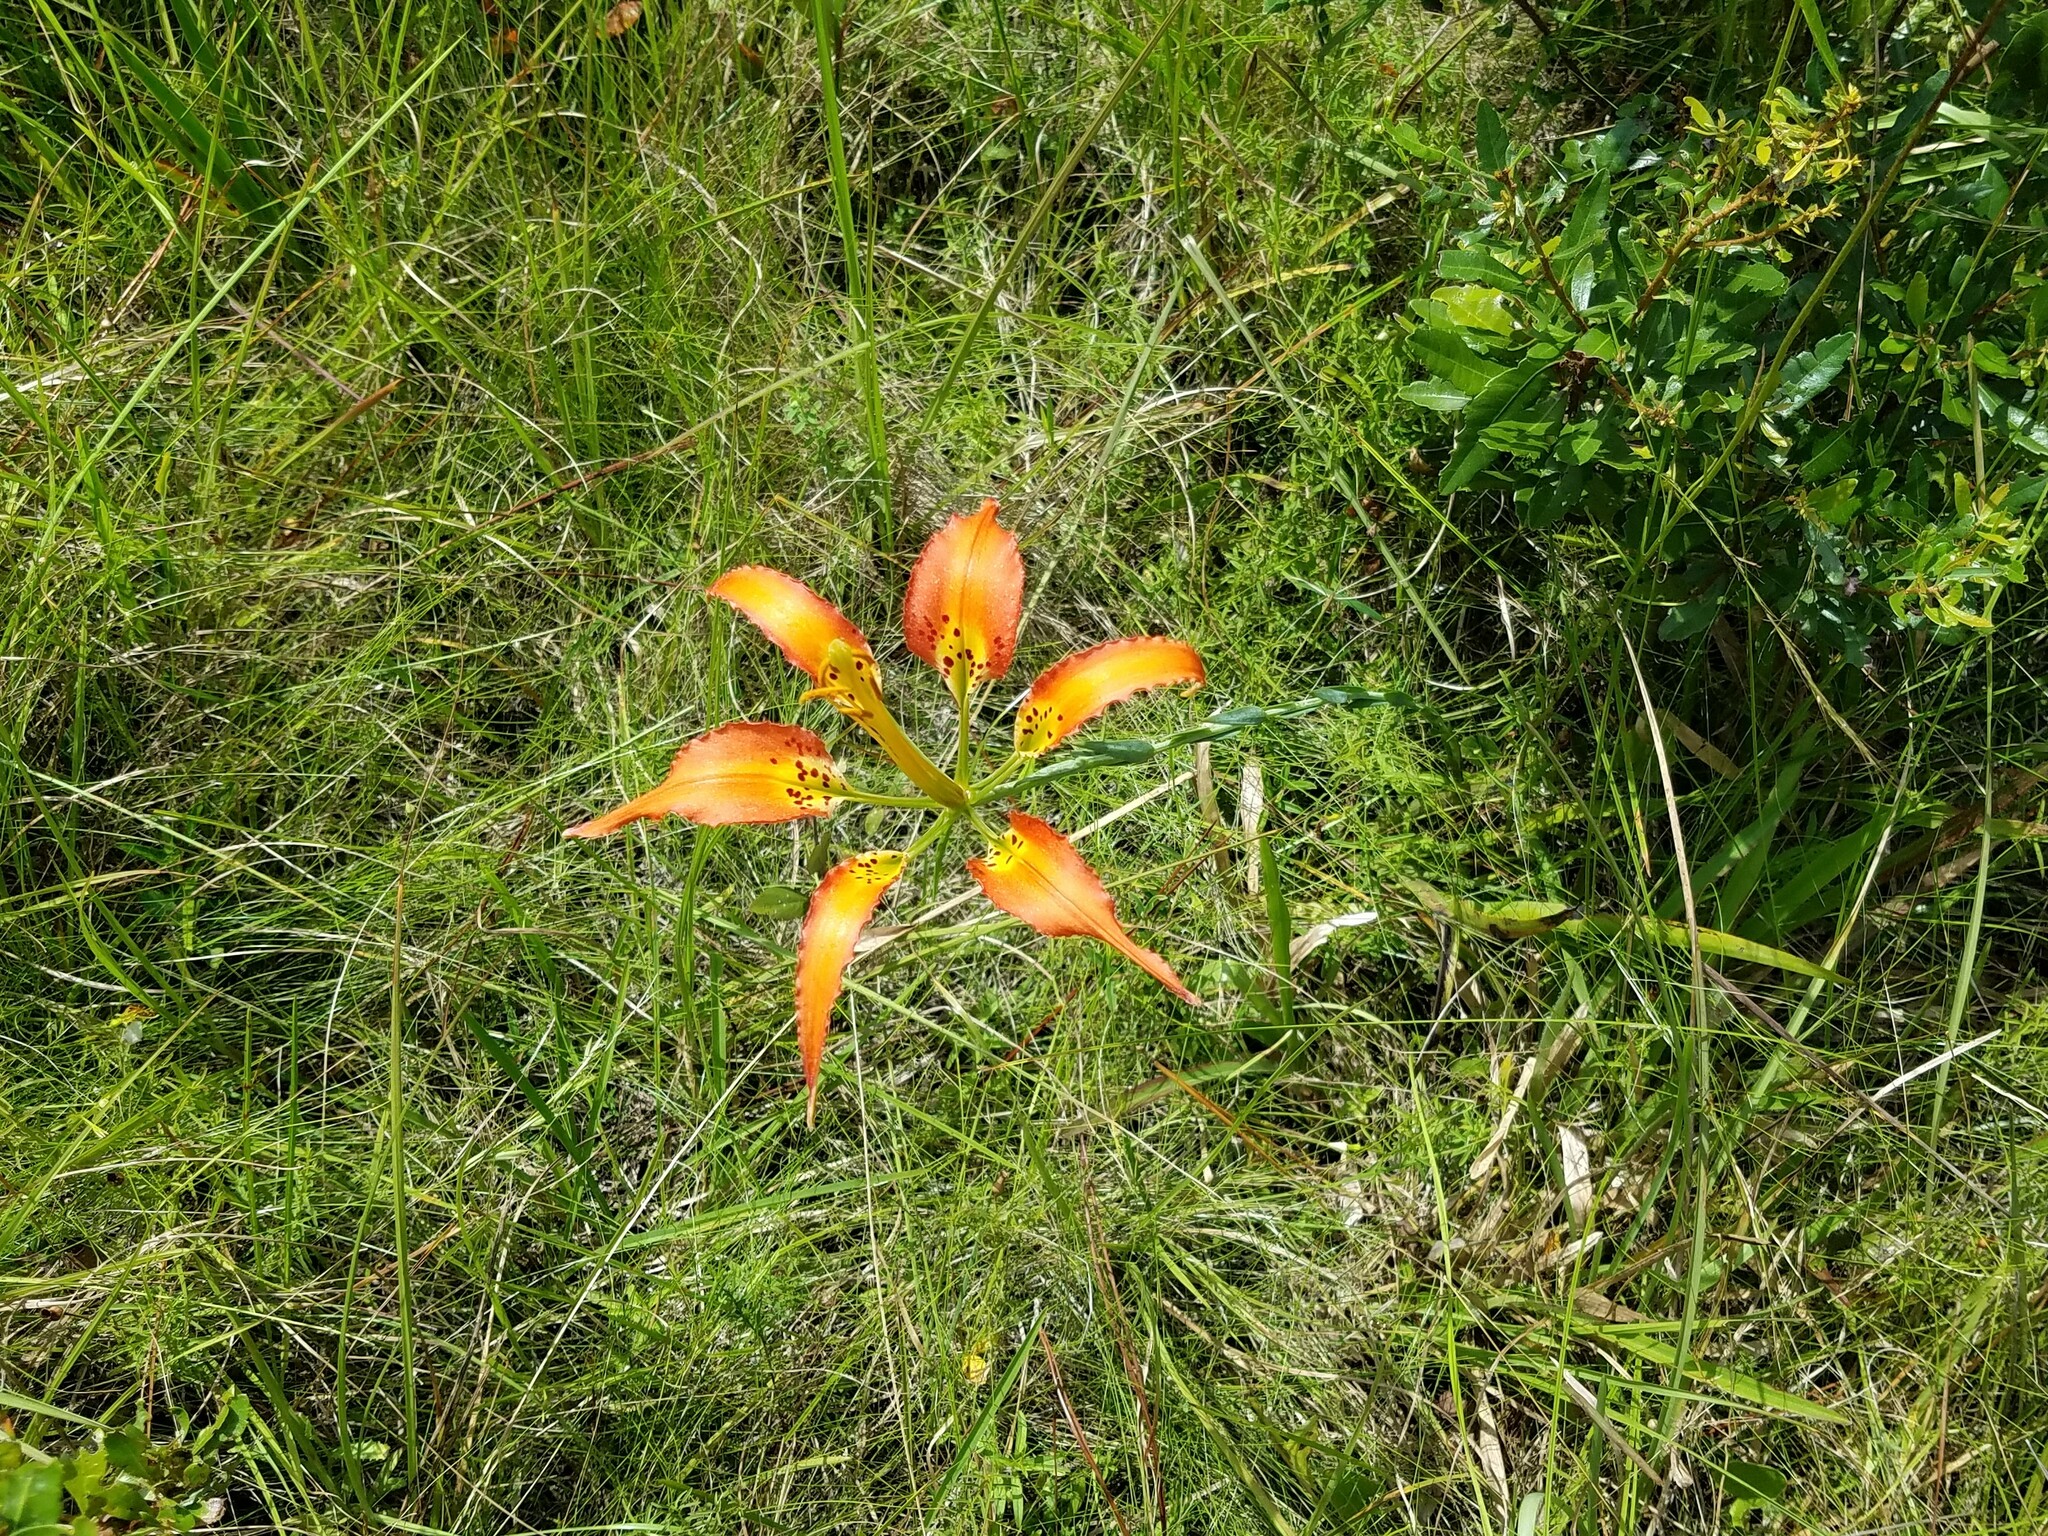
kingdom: Plantae
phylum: Tracheophyta
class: Liliopsida
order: Liliales
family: Liliaceae
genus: Lilium
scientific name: Lilium catesbaei
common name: Catesby's lily
